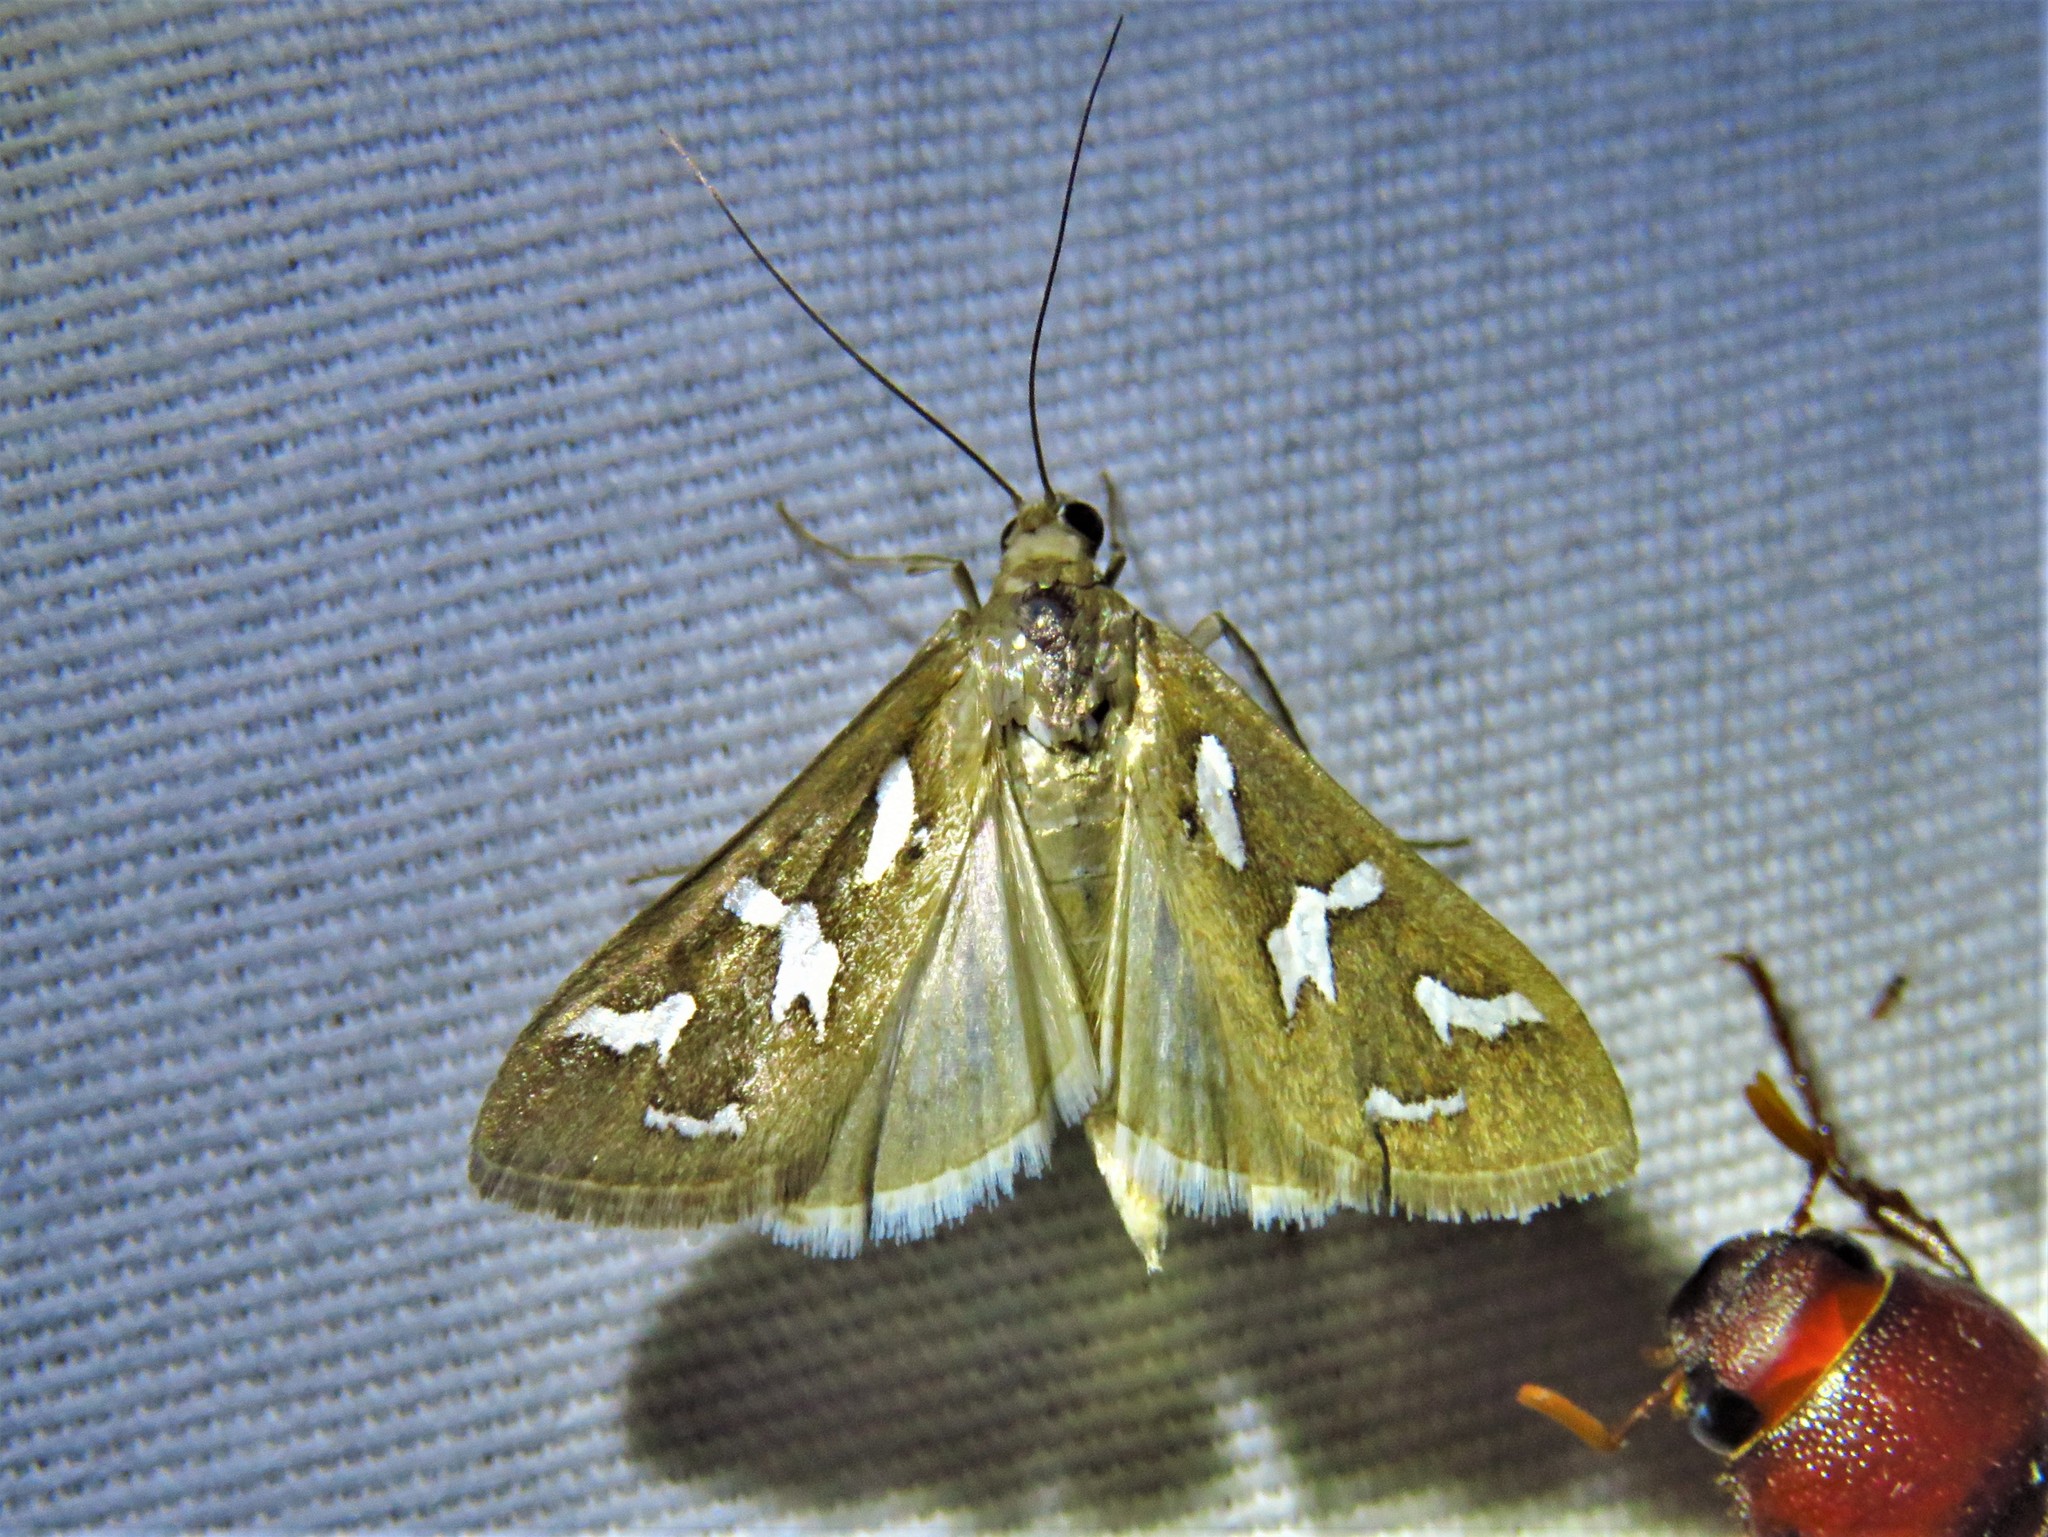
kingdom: Animalia
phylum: Arthropoda
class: Insecta
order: Lepidoptera
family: Crambidae
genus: Diastictis
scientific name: Diastictis fracturalis
